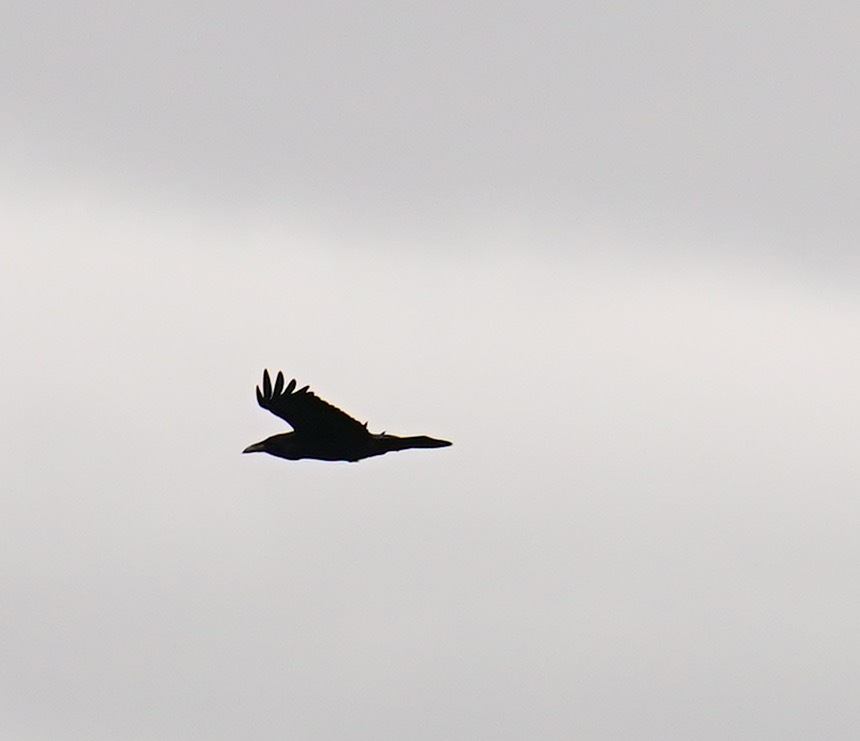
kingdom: Animalia
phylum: Chordata
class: Aves
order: Passeriformes
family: Corvidae
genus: Corvus
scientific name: Corvus corax
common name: Common raven
